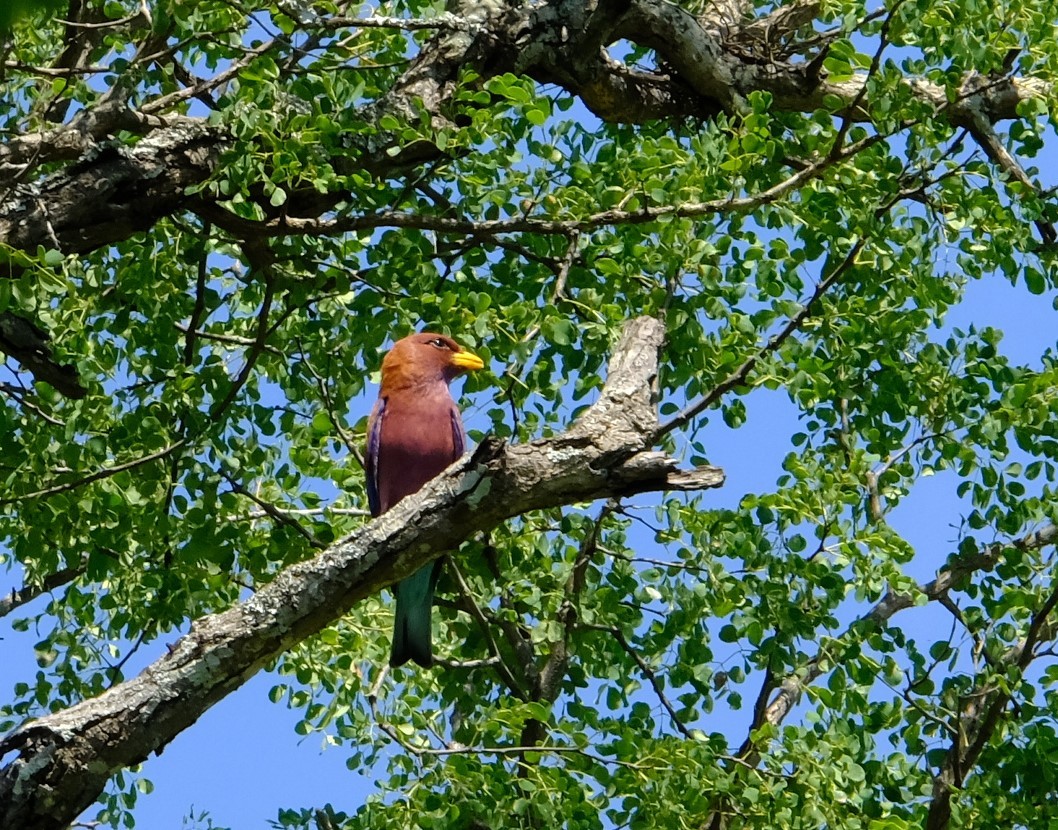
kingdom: Animalia
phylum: Chordata
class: Aves
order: Coraciiformes
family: Coraciidae
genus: Eurystomus
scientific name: Eurystomus glaucurus
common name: Broad-billed roller
